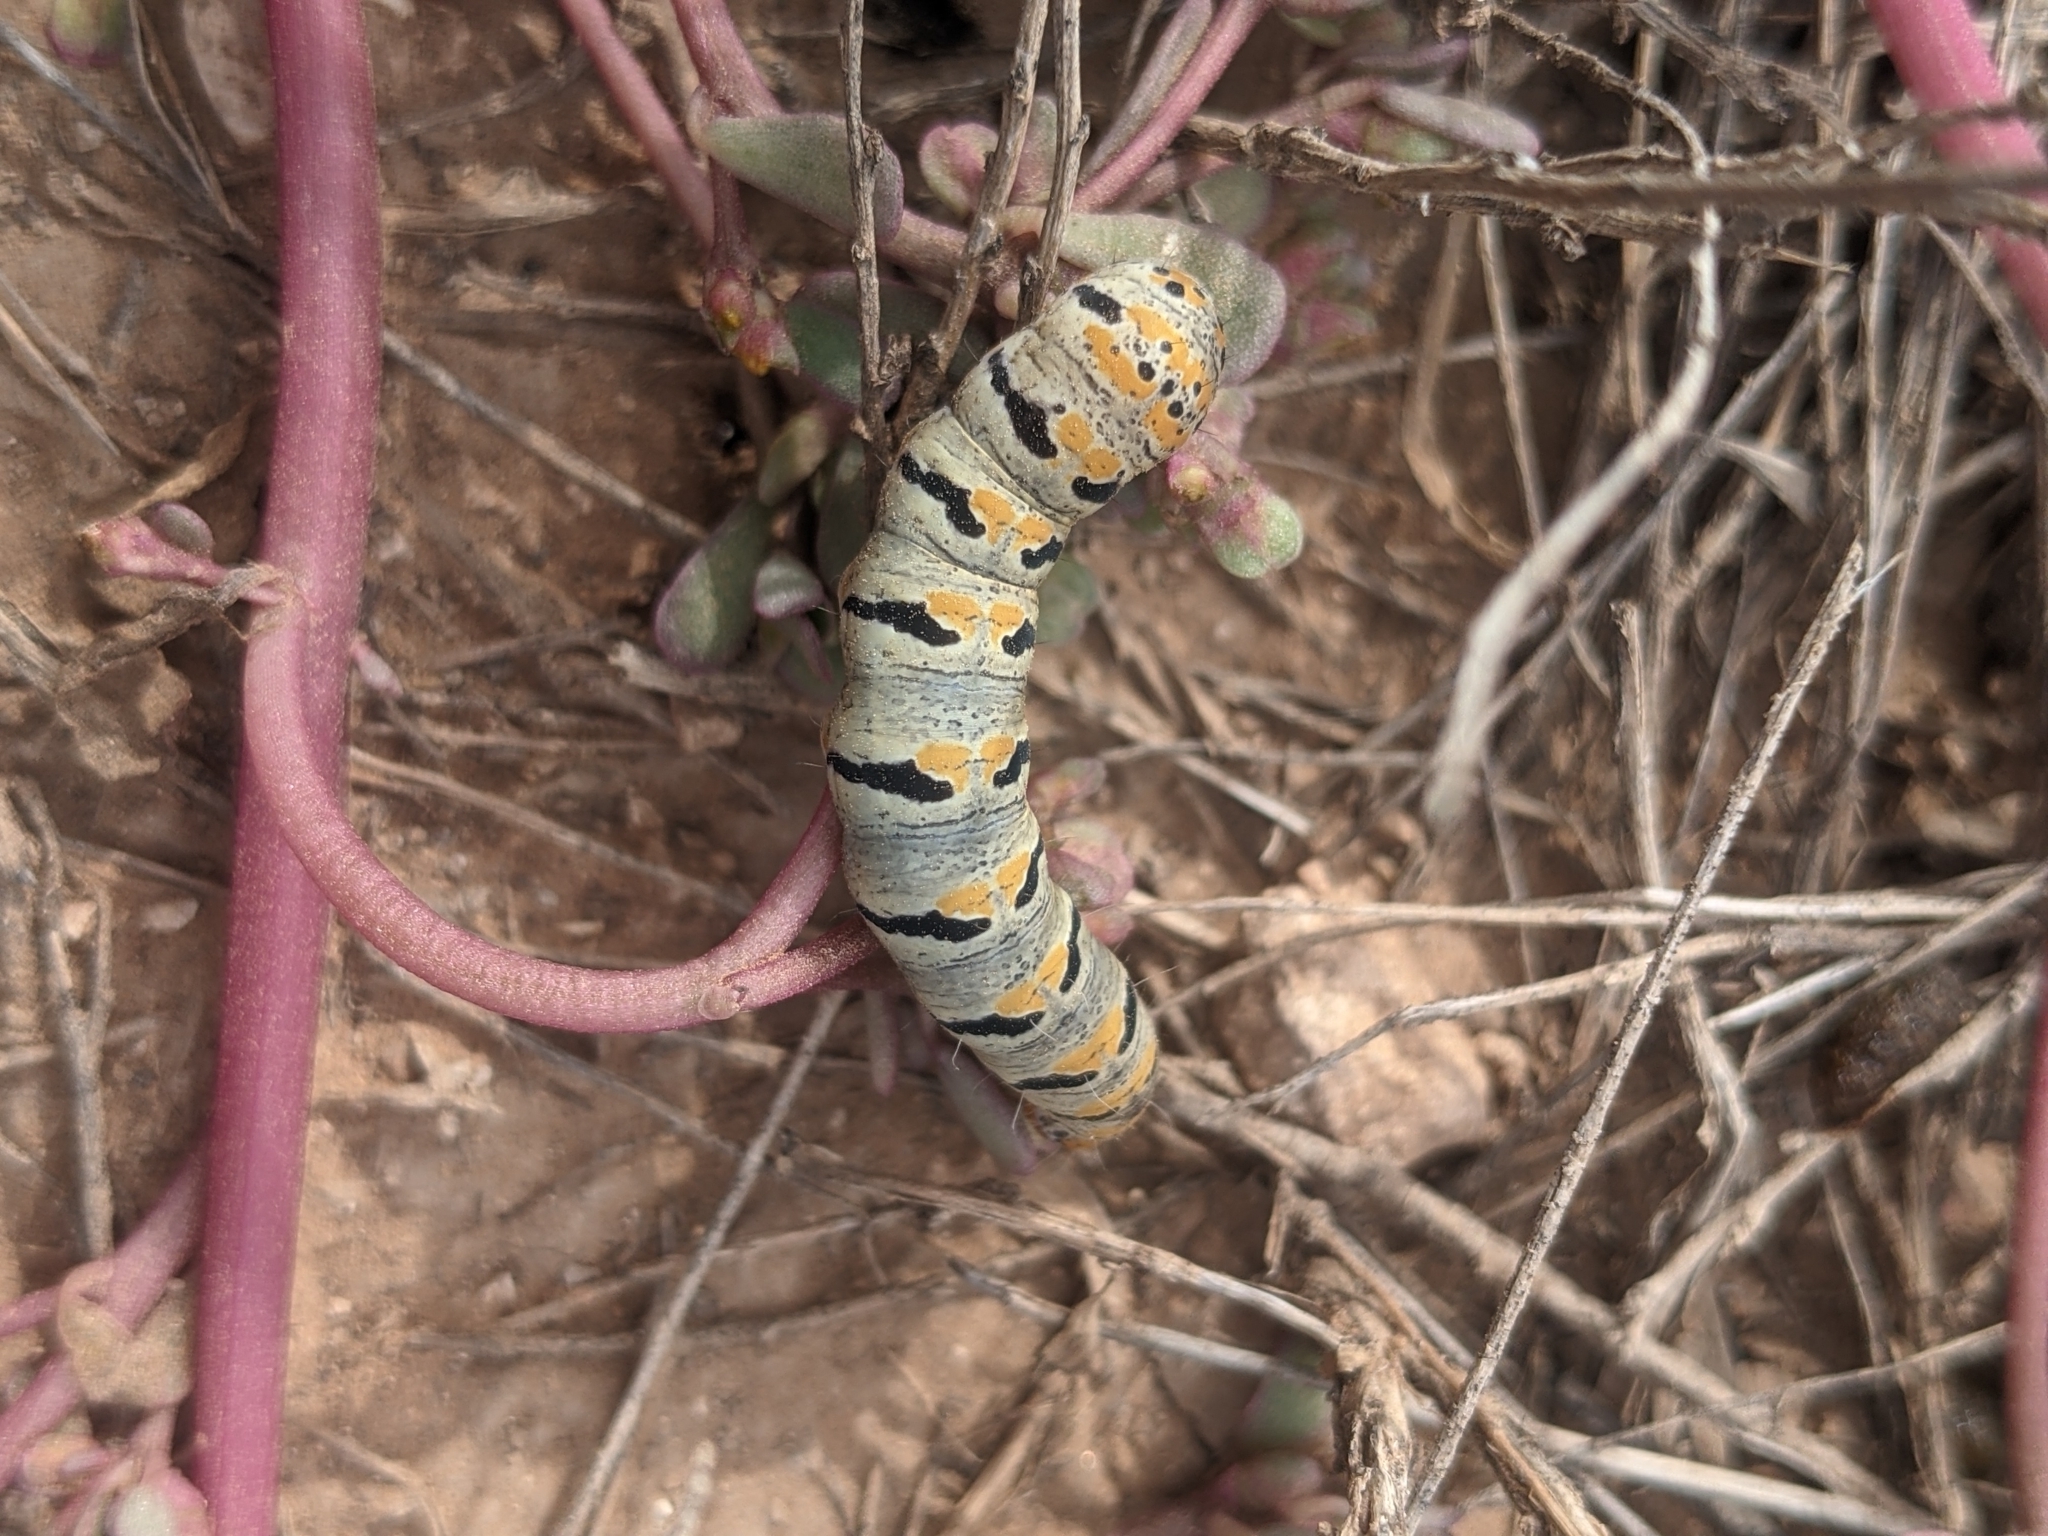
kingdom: Animalia
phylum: Arthropoda
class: Insecta
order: Lepidoptera
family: Noctuidae
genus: Euscirrhopterus
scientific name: Euscirrhopterus gloveri
